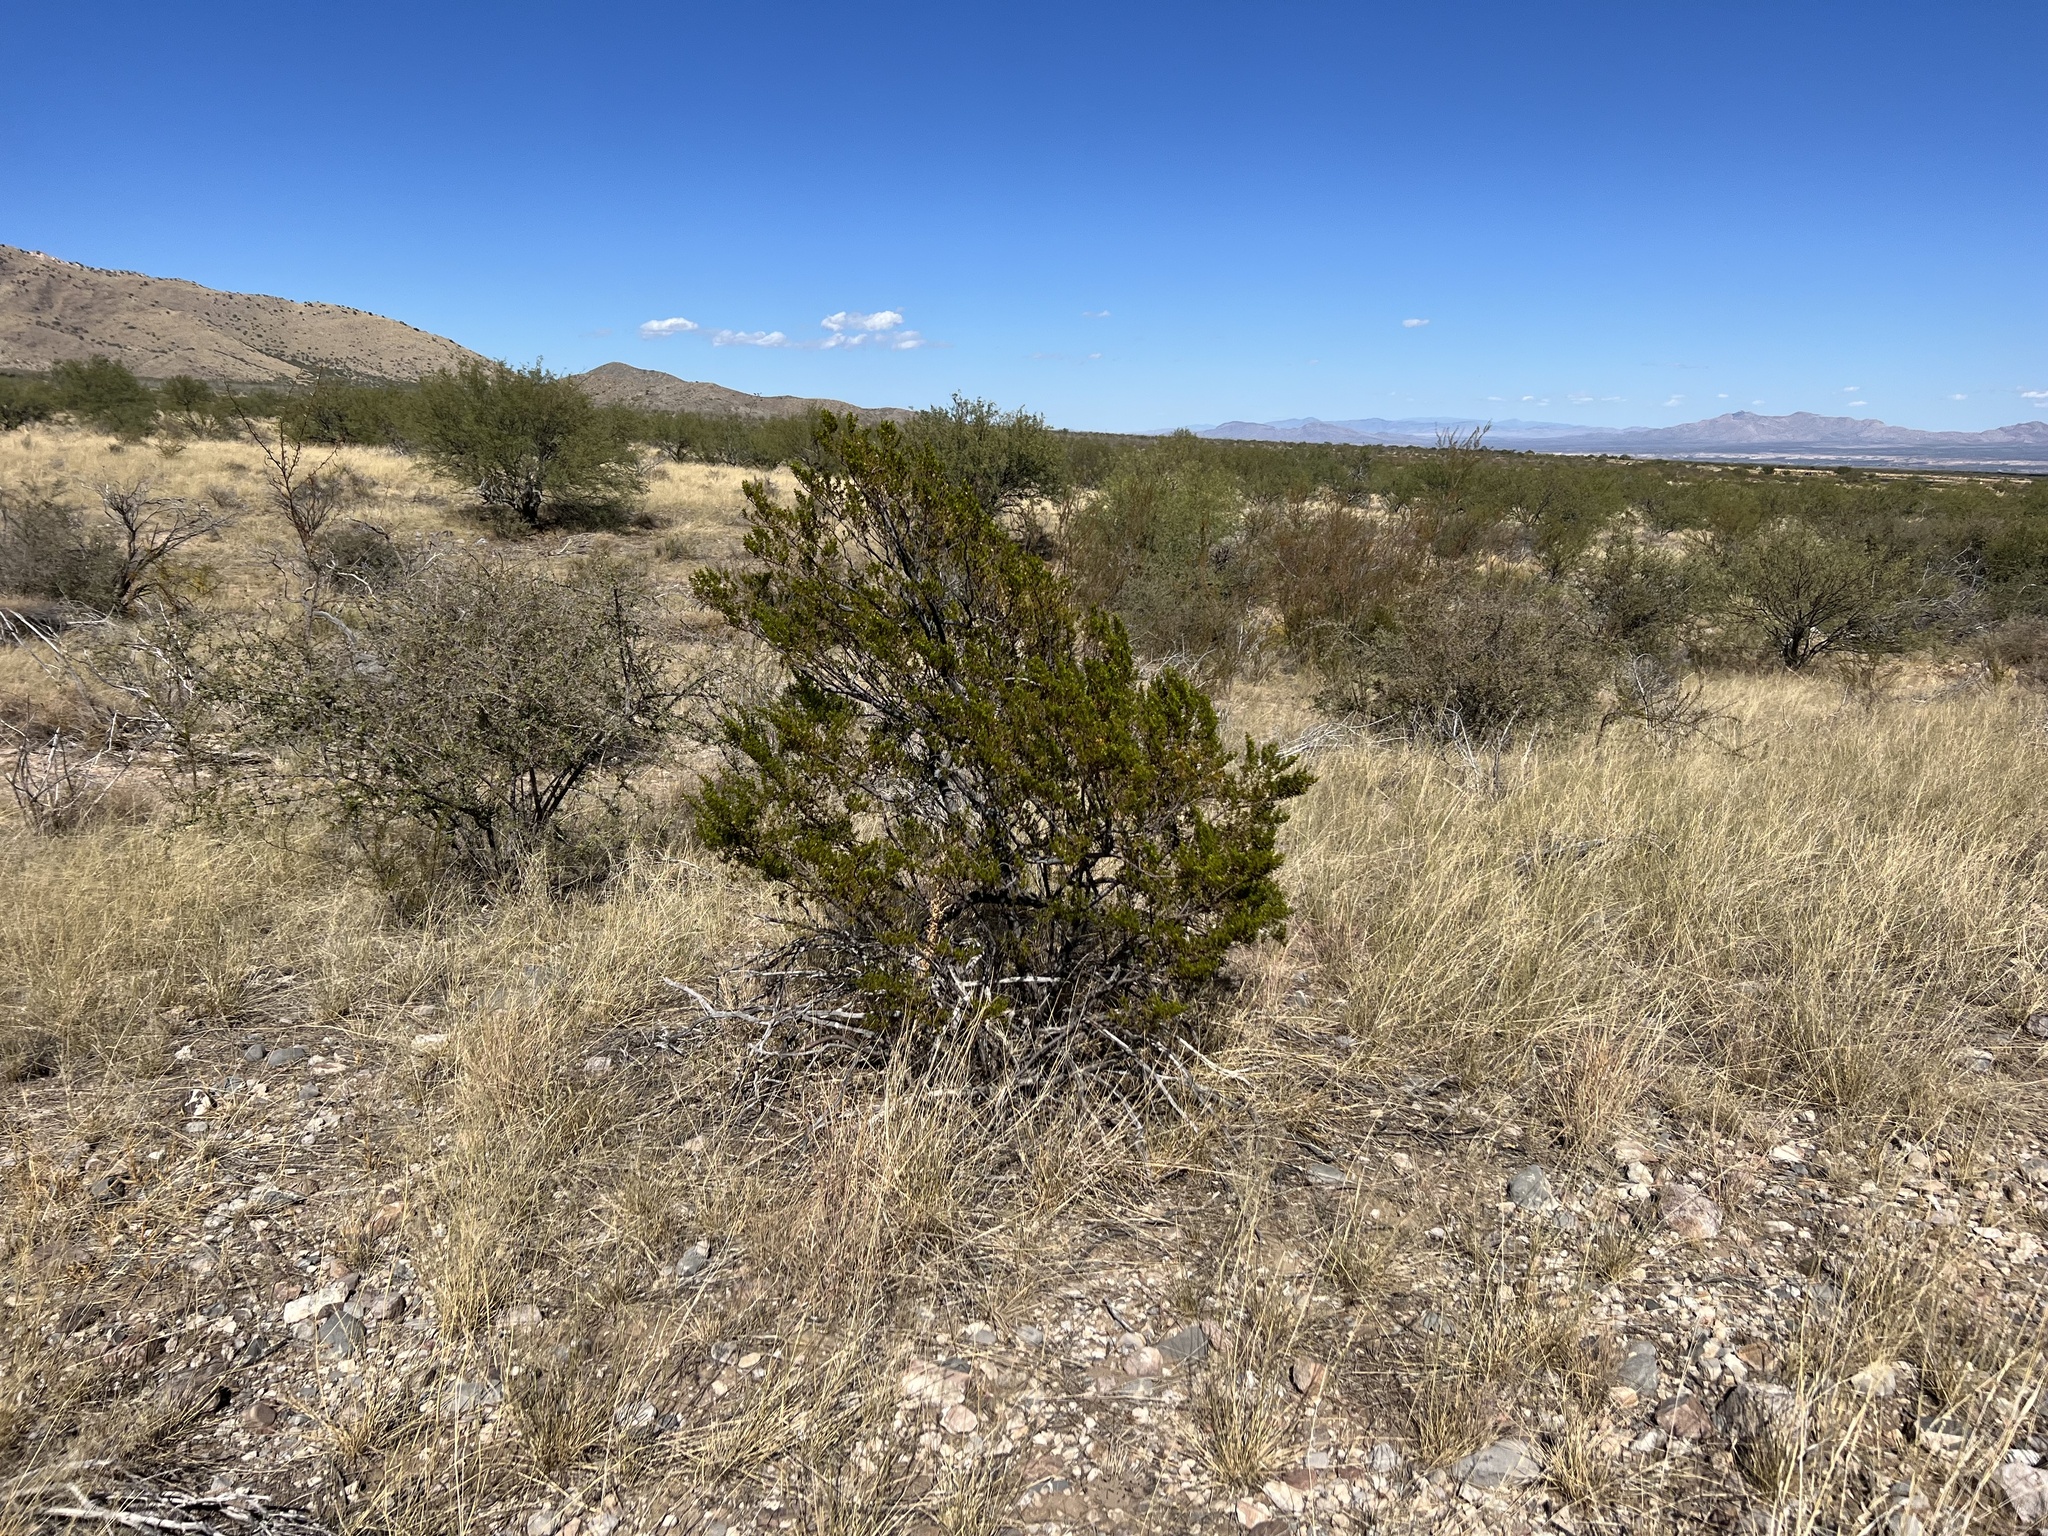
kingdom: Plantae
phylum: Tracheophyta
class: Magnoliopsida
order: Zygophyllales
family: Zygophyllaceae
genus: Larrea
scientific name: Larrea tridentata
